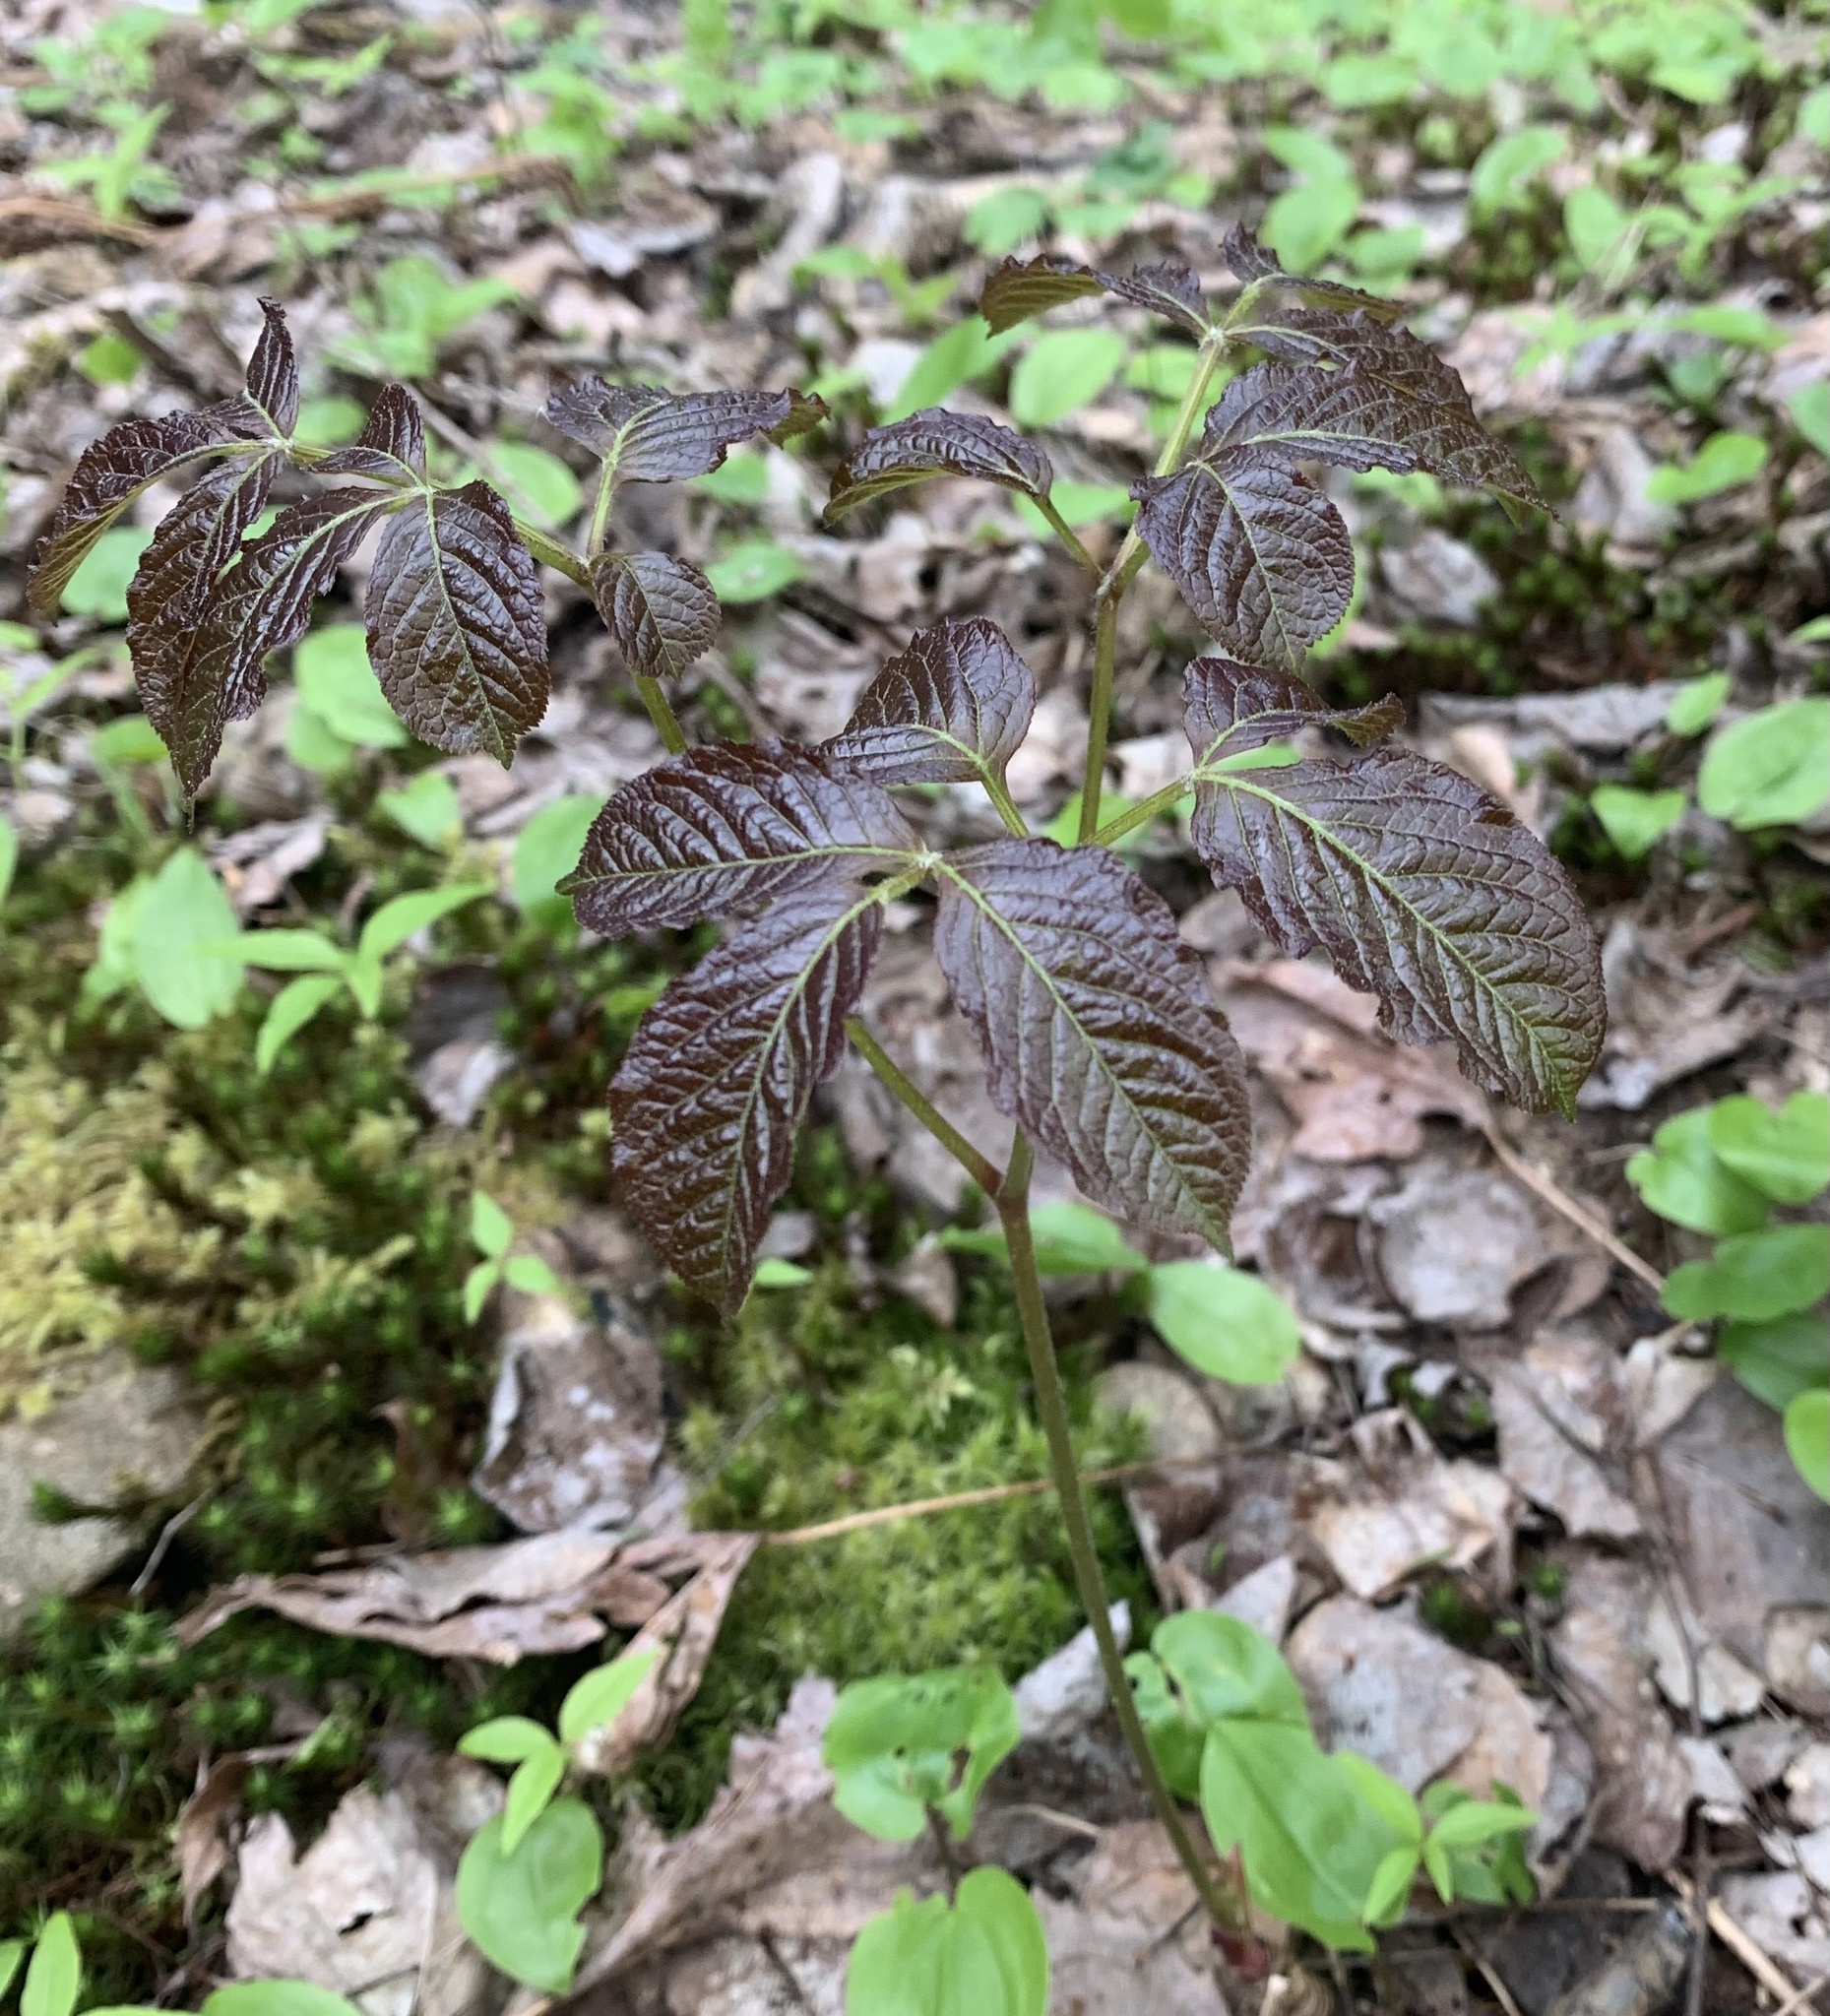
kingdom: Plantae
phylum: Tracheophyta
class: Magnoliopsida
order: Apiales
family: Araliaceae
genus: Aralia
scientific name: Aralia nudicaulis
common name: Wild sarsaparilla
